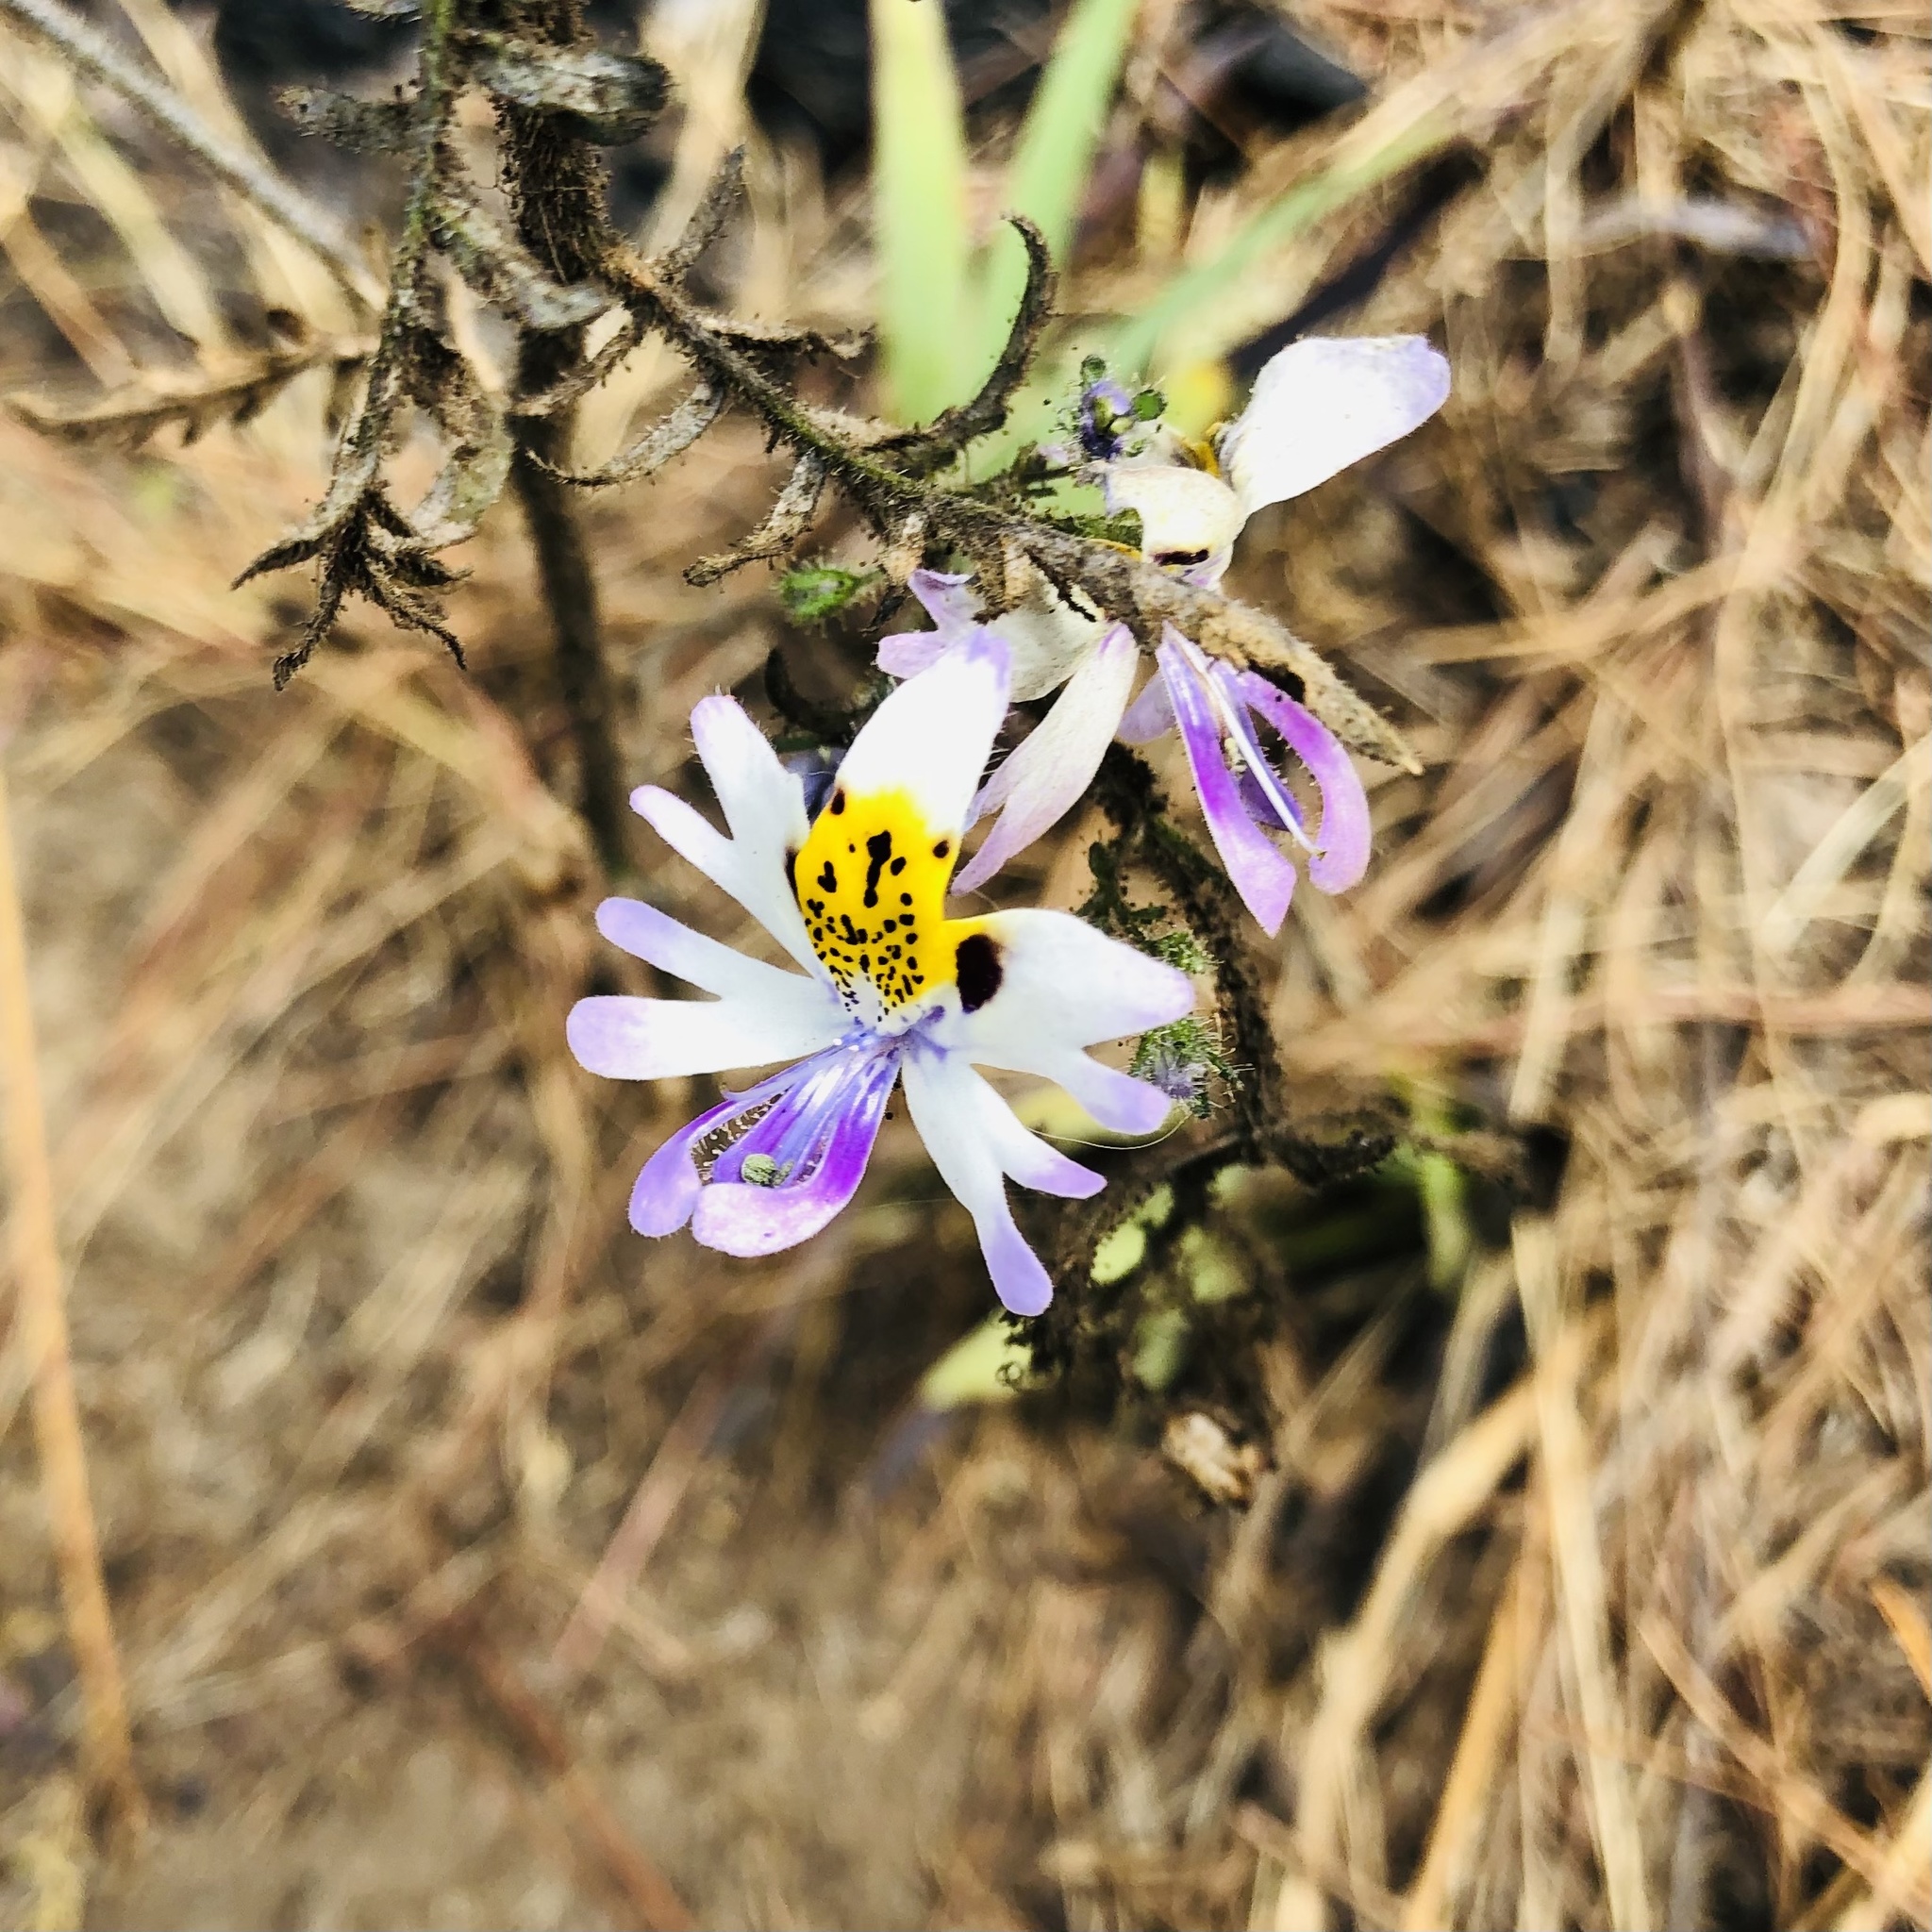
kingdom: Plantae
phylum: Tracheophyta
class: Magnoliopsida
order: Solanales
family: Solanaceae
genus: Schizanthus
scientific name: Schizanthus porrigens
